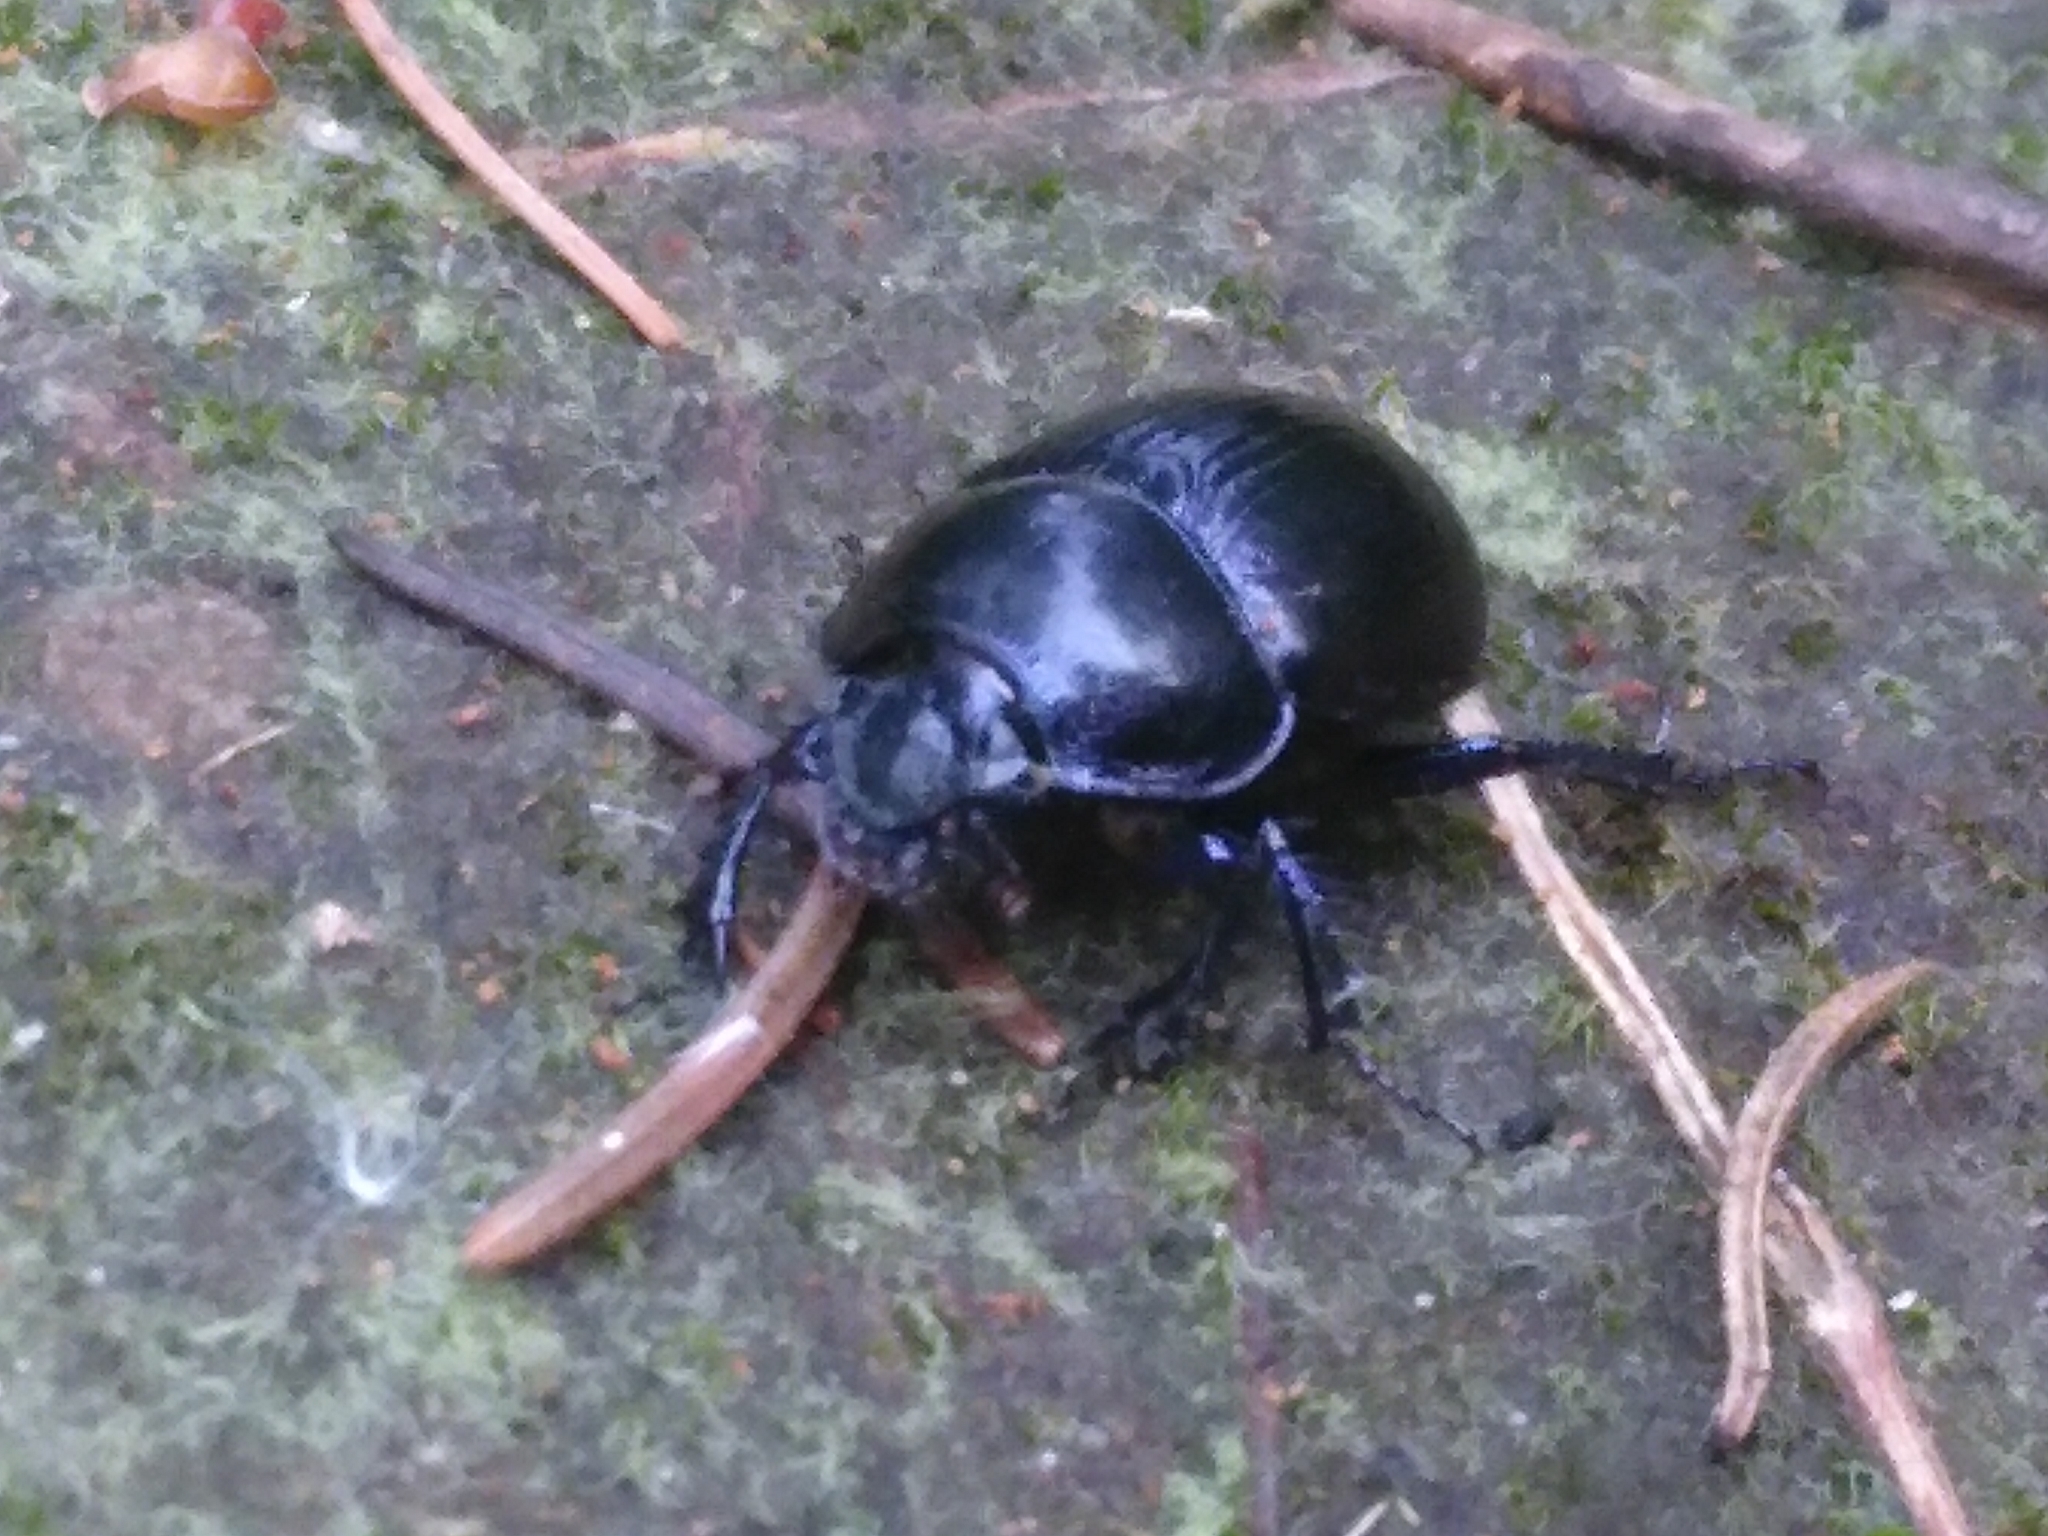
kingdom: Animalia
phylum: Arthropoda
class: Insecta
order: Coleoptera
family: Geotrupidae
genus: Anoplotrupes
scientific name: Anoplotrupes stercorosus
